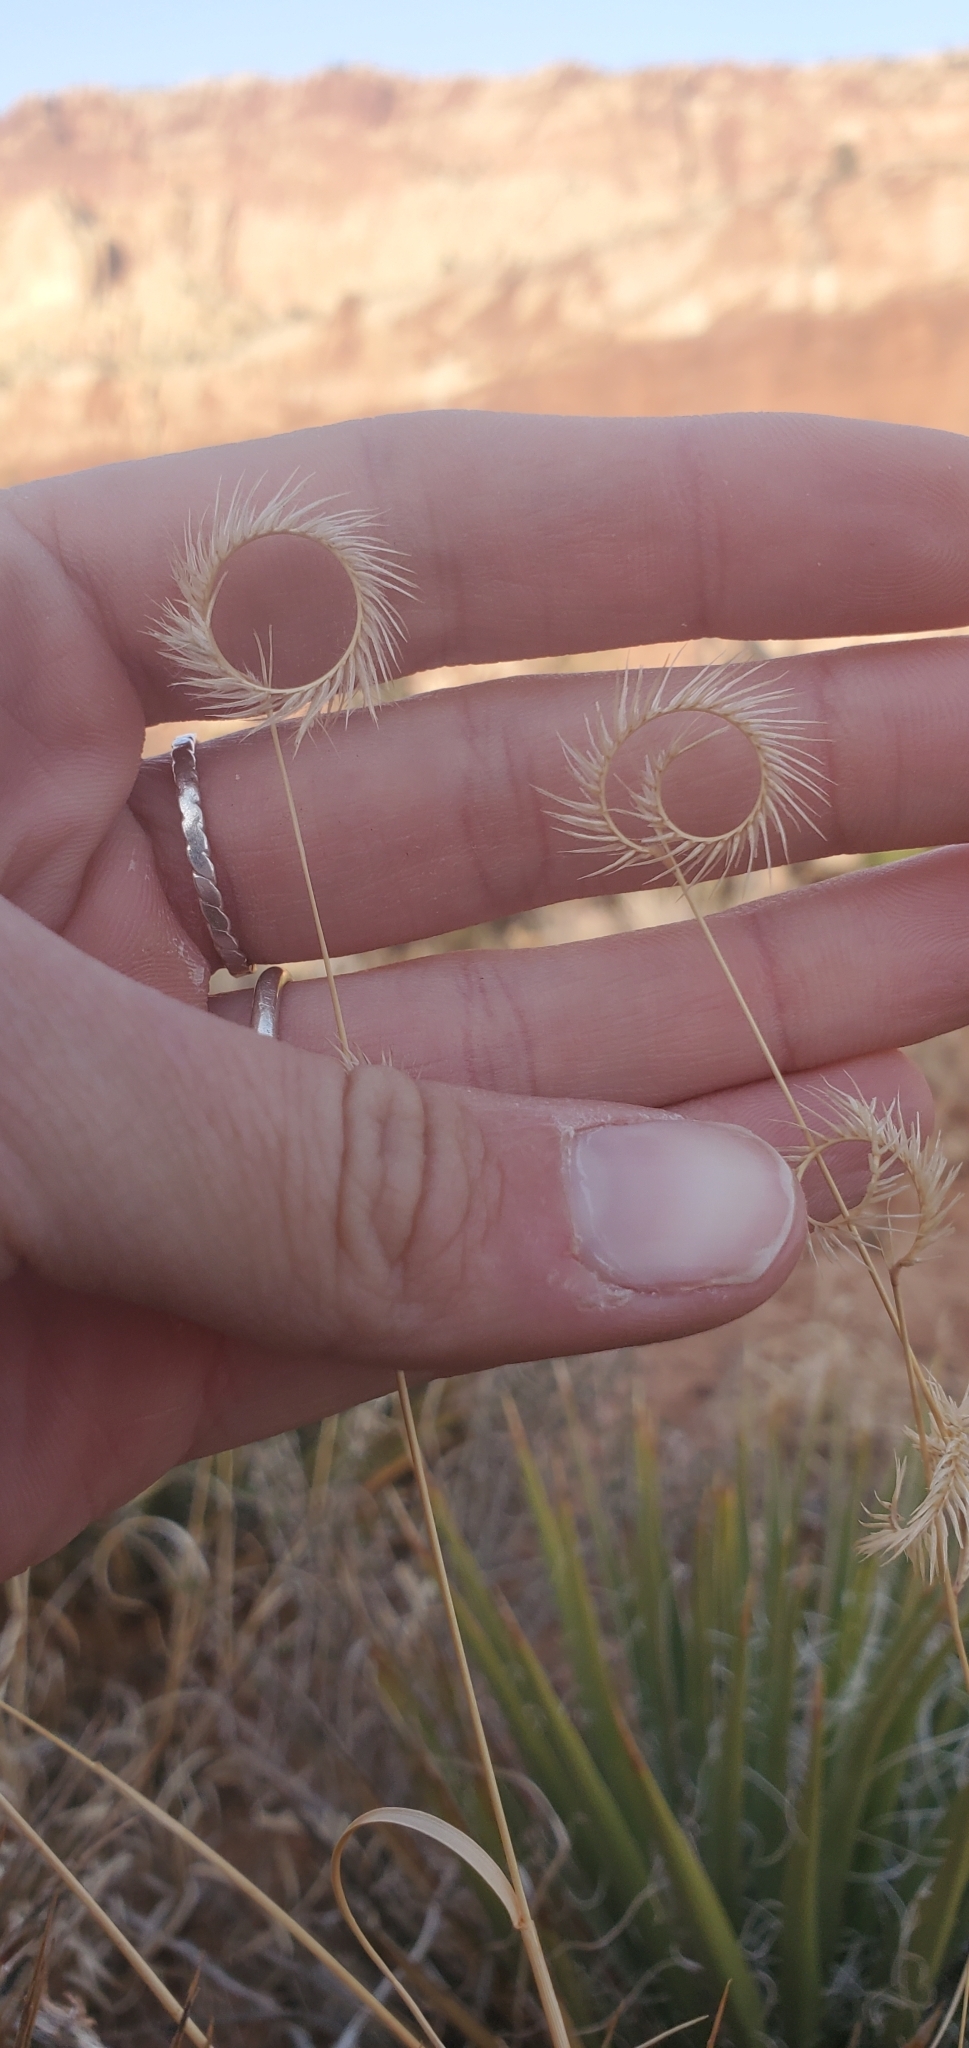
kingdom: Plantae
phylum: Tracheophyta
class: Liliopsida
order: Poales
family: Poaceae
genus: Bouteloua
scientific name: Bouteloua gracilis
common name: Blue grama
